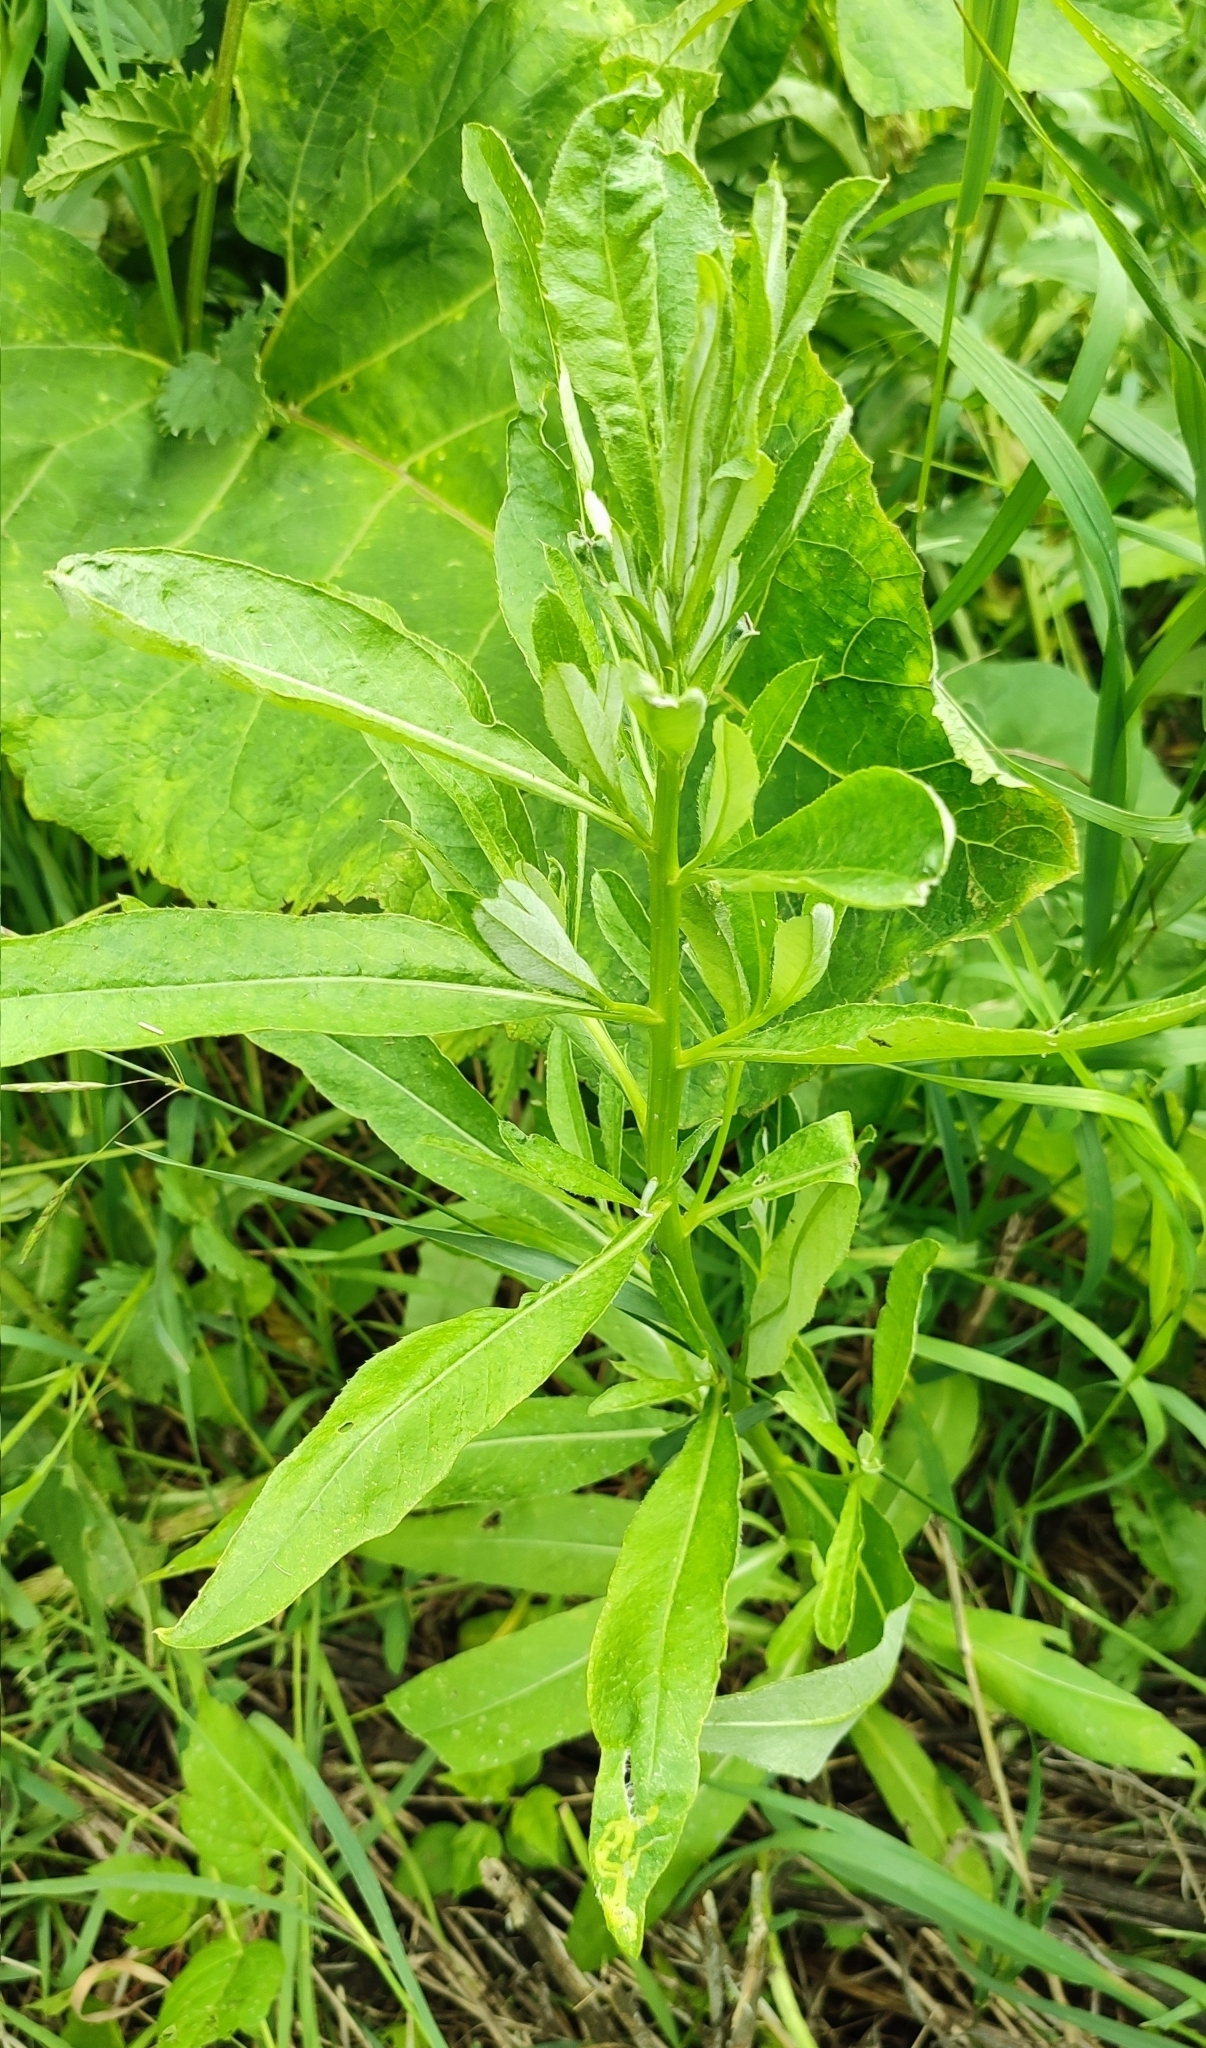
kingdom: Plantae
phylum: Tracheophyta
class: Magnoliopsida
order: Asterales
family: Asteraceae
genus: Cirsium
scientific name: Cirsium arvense
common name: Creeping thistle
